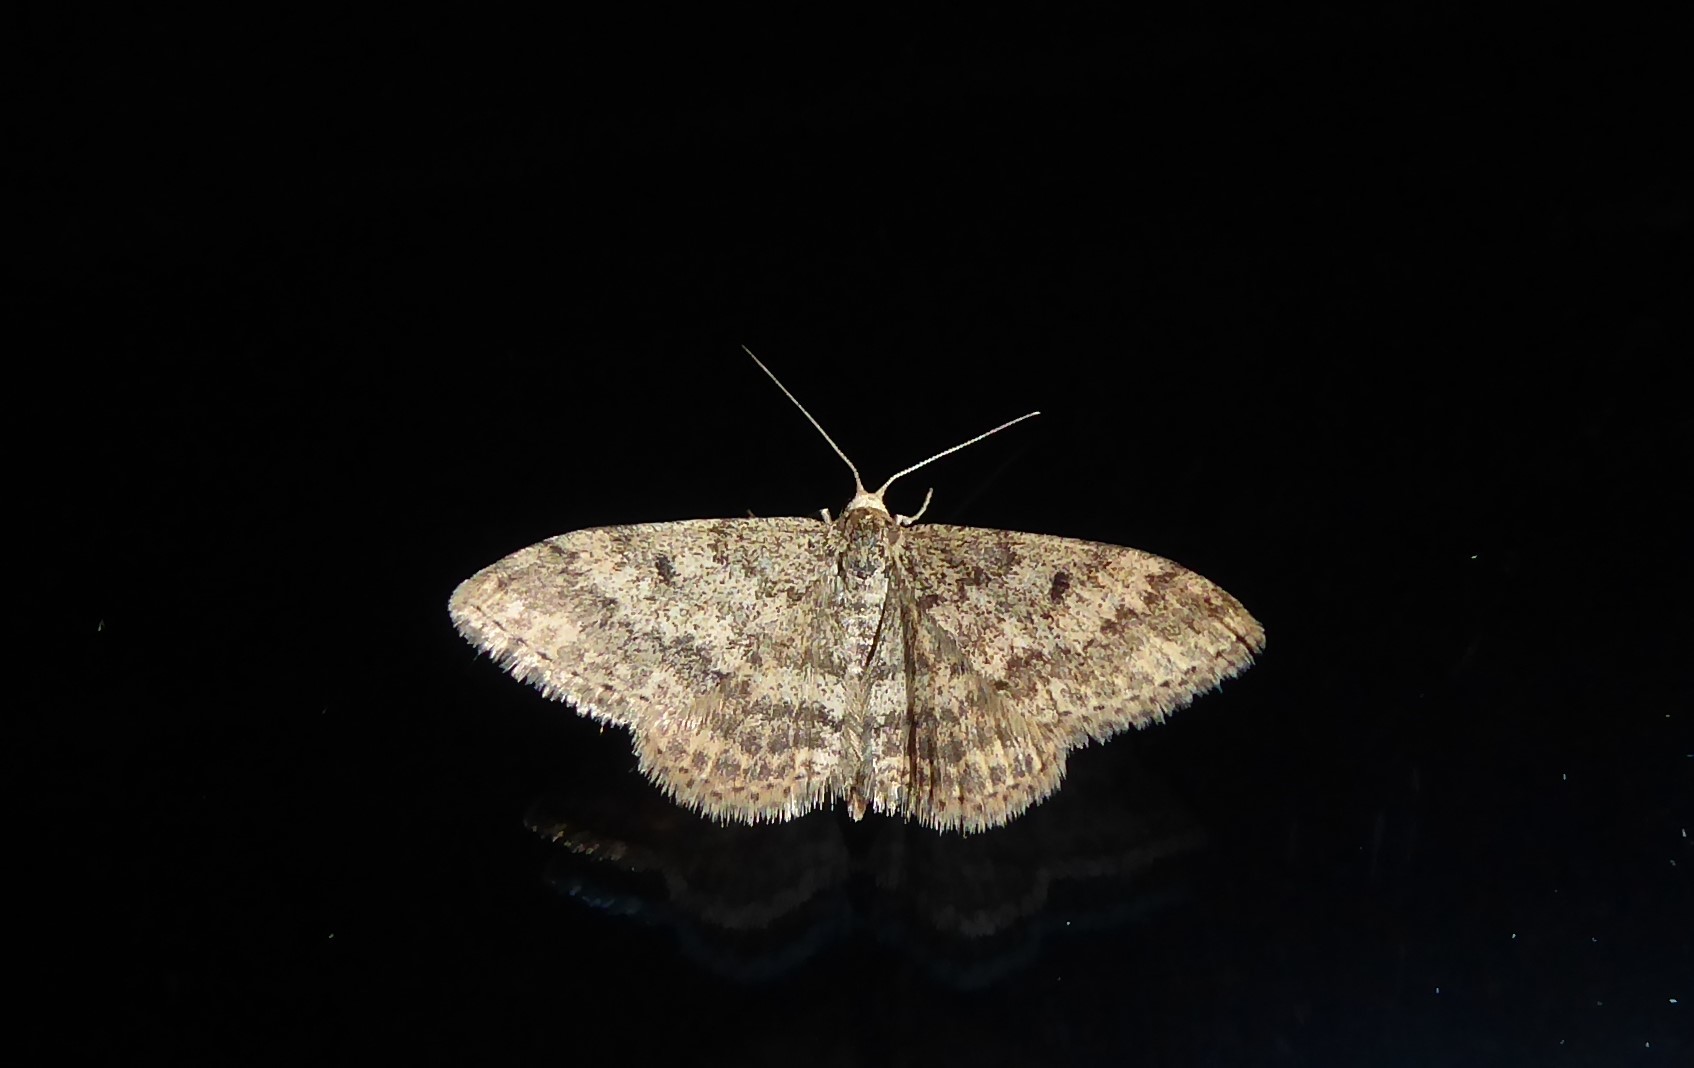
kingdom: Animalia
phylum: Arthropoda
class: Insecta
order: Lepidoptera
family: Geometridae
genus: Scopula
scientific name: Scopula rubraria
